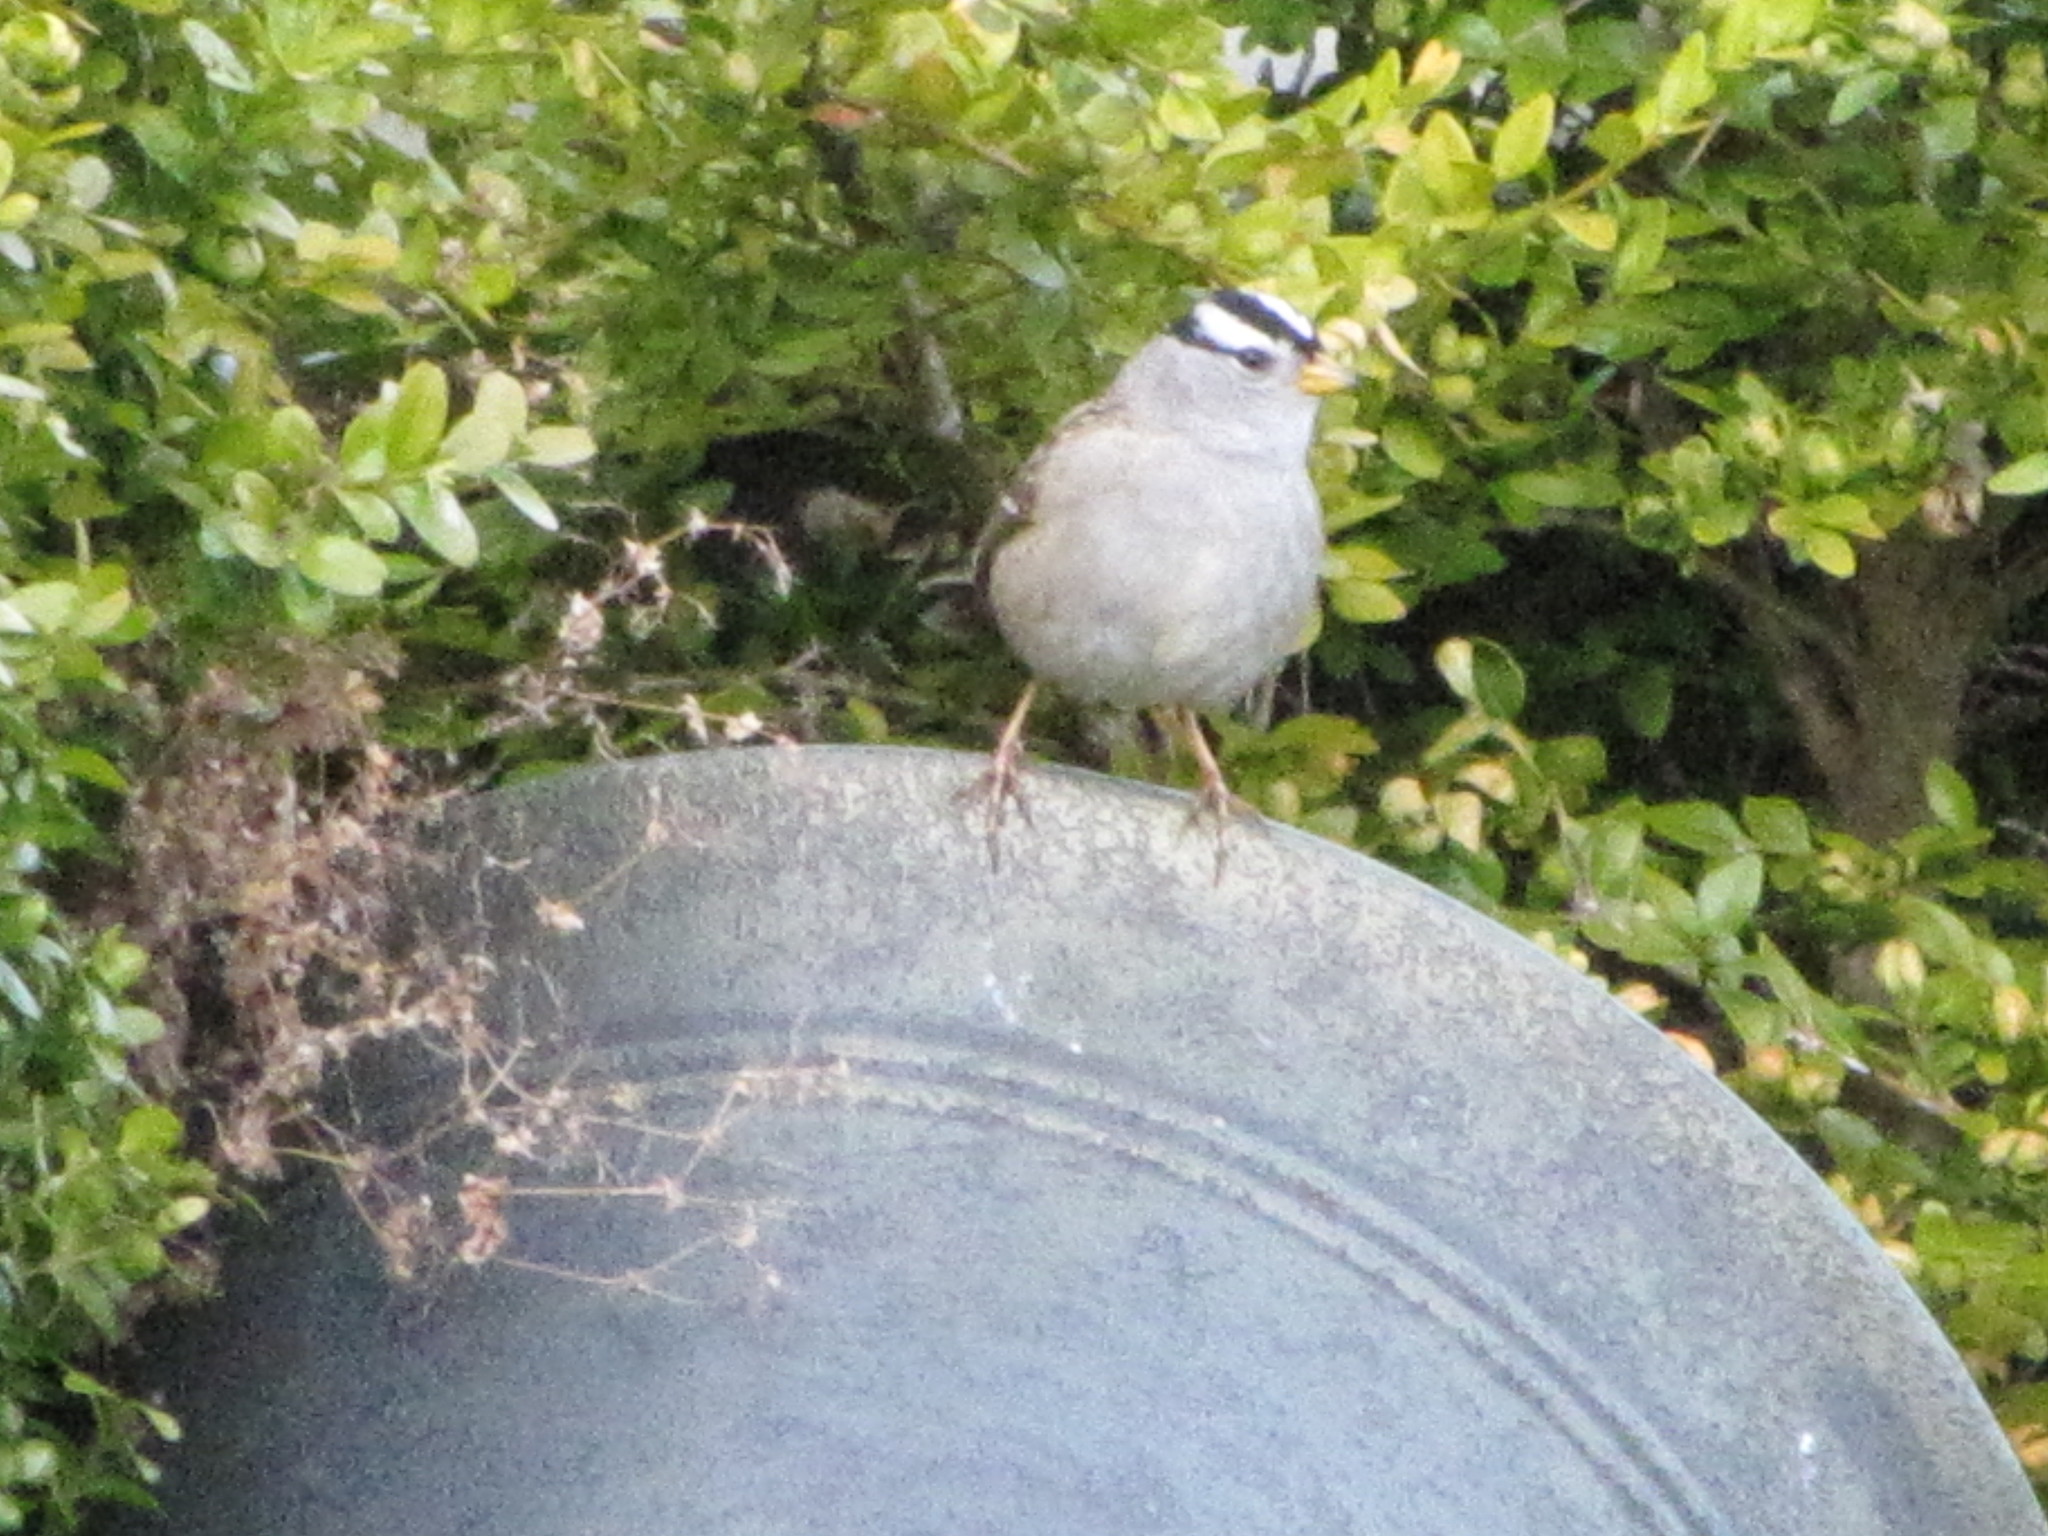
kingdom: Animalia
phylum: Chordata
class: Aves
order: Passeriformes
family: Passerellidae
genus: Zonotrichia
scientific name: Zonotrichia leucophrys
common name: White-crowned sparrow
